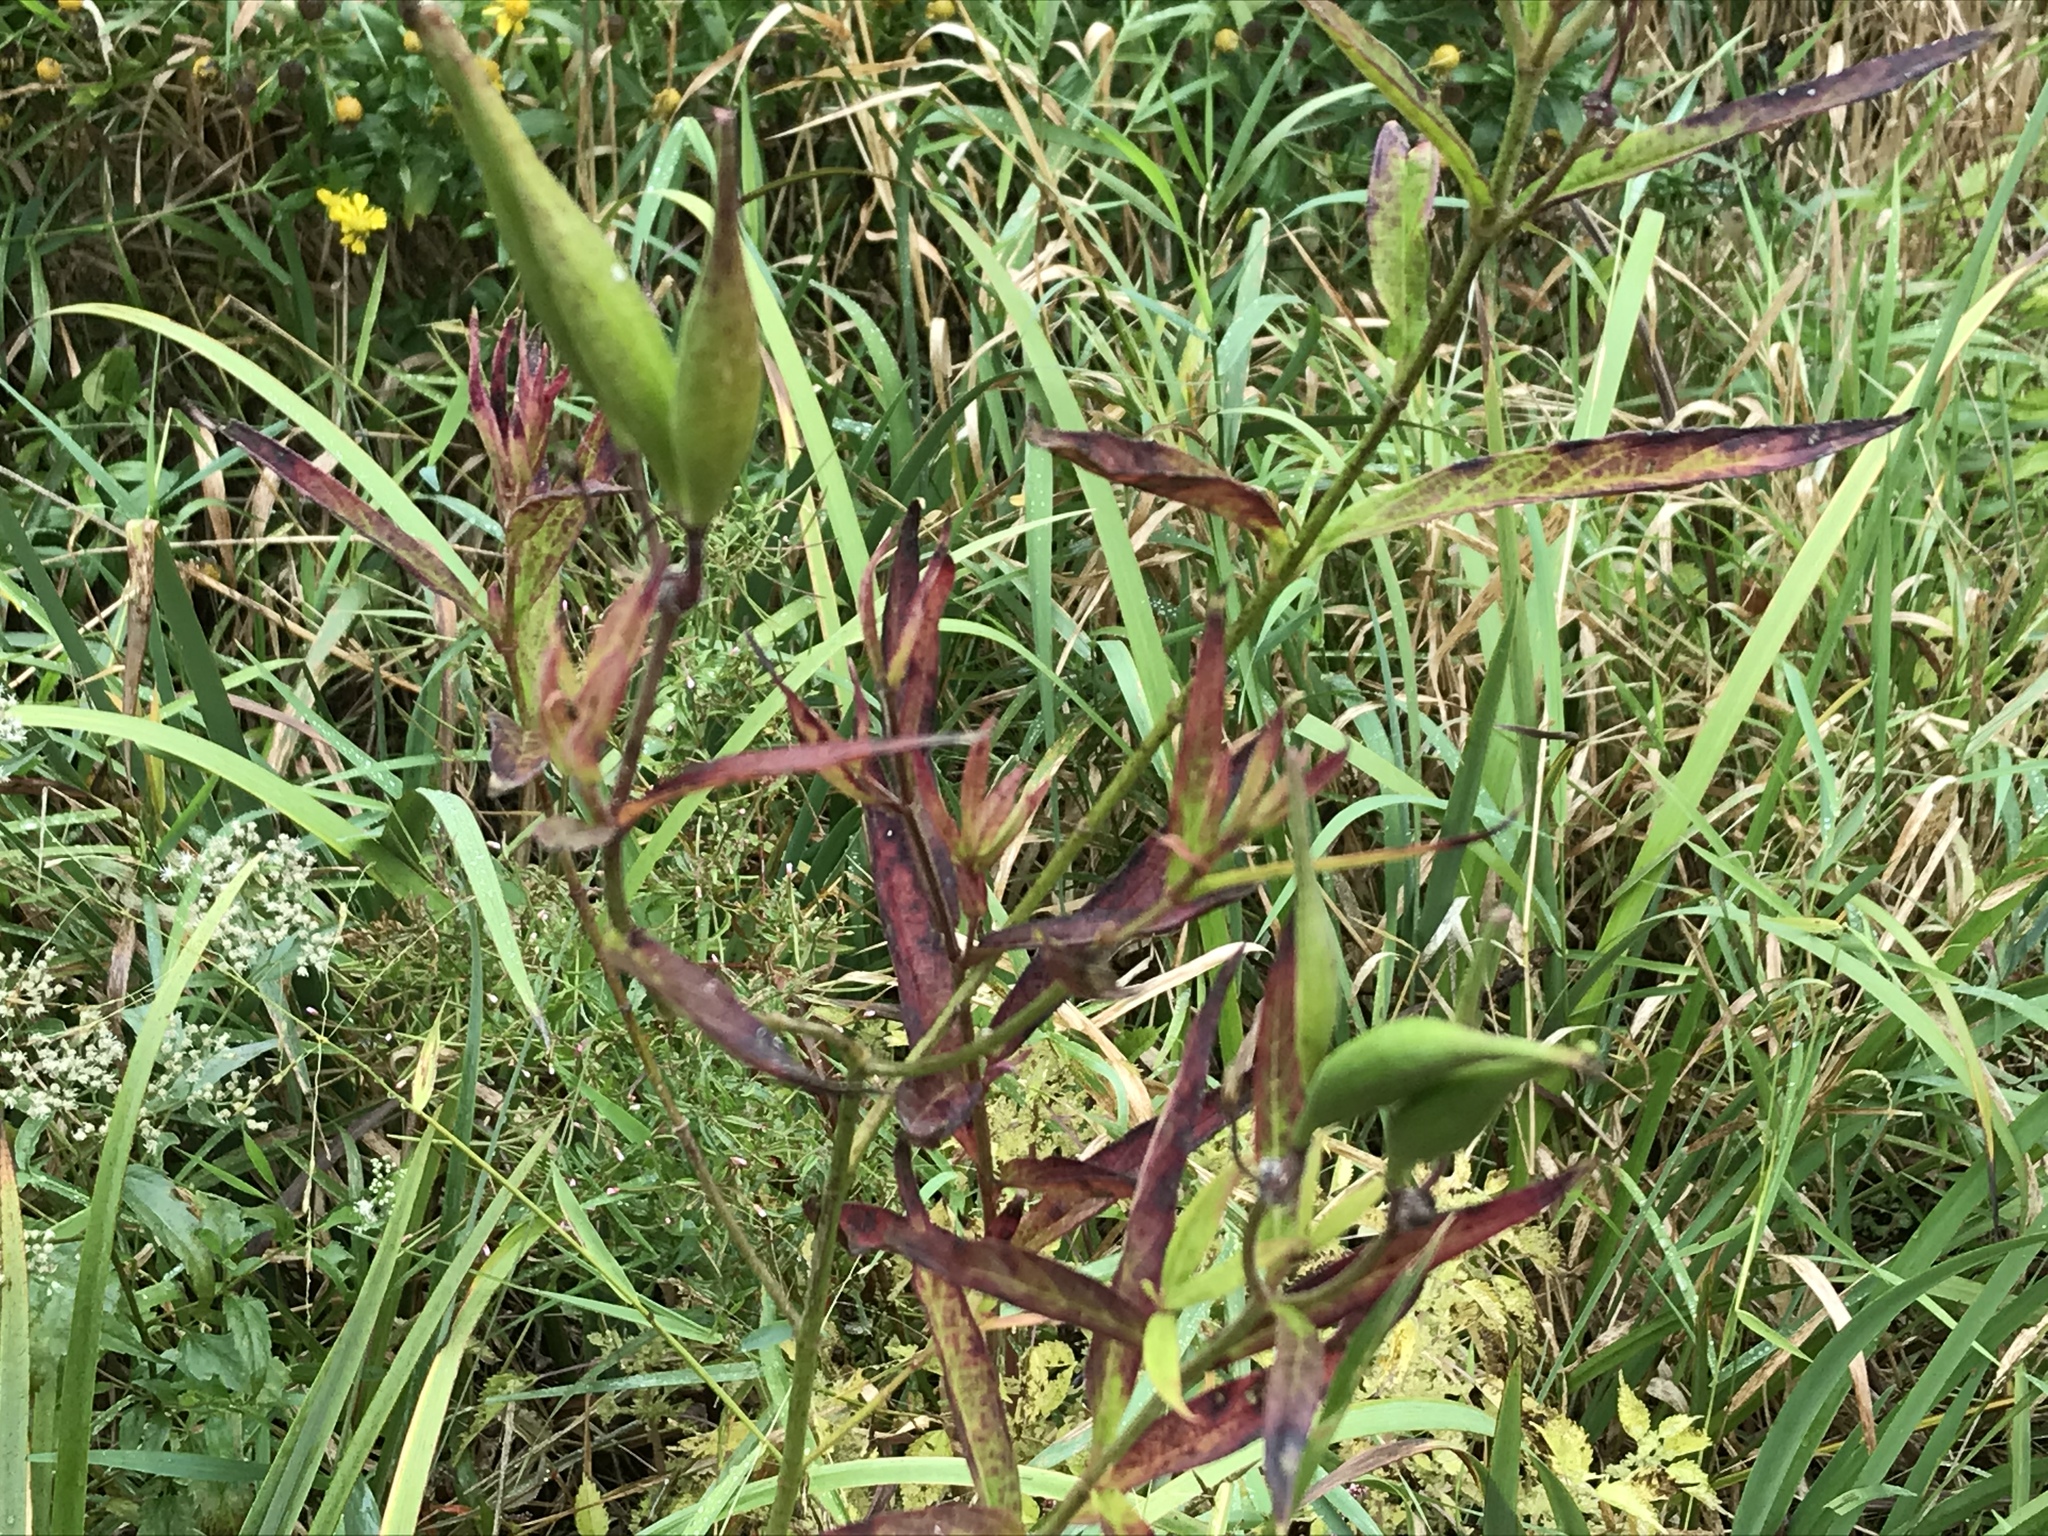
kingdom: Plantae
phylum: Tracheophyta
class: Magnoliopsida
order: Gentianales
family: Apocynaceae
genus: Asclepias
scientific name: Asclepias incarnata
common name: Swamp milkweed
